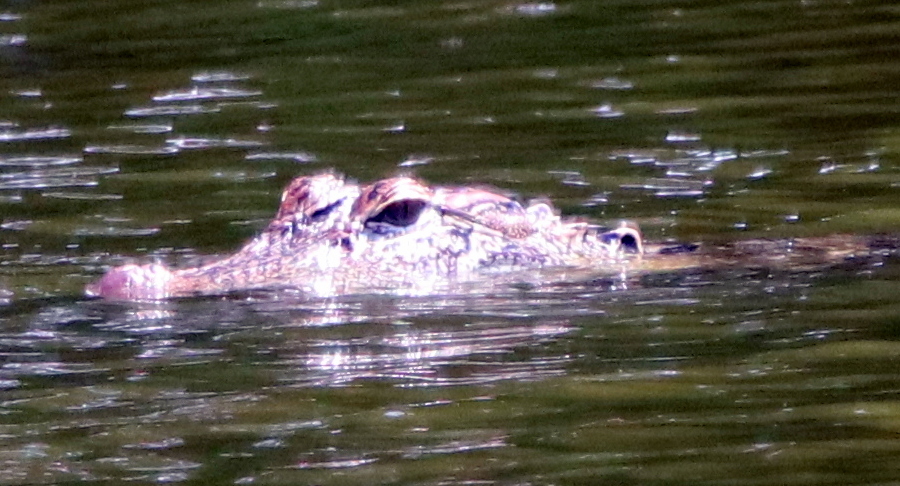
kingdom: Animalia
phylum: Chordata
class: Crocodylia
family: Alligatoridae
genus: Alligator
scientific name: Alligator mississippiensis
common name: American alligator
